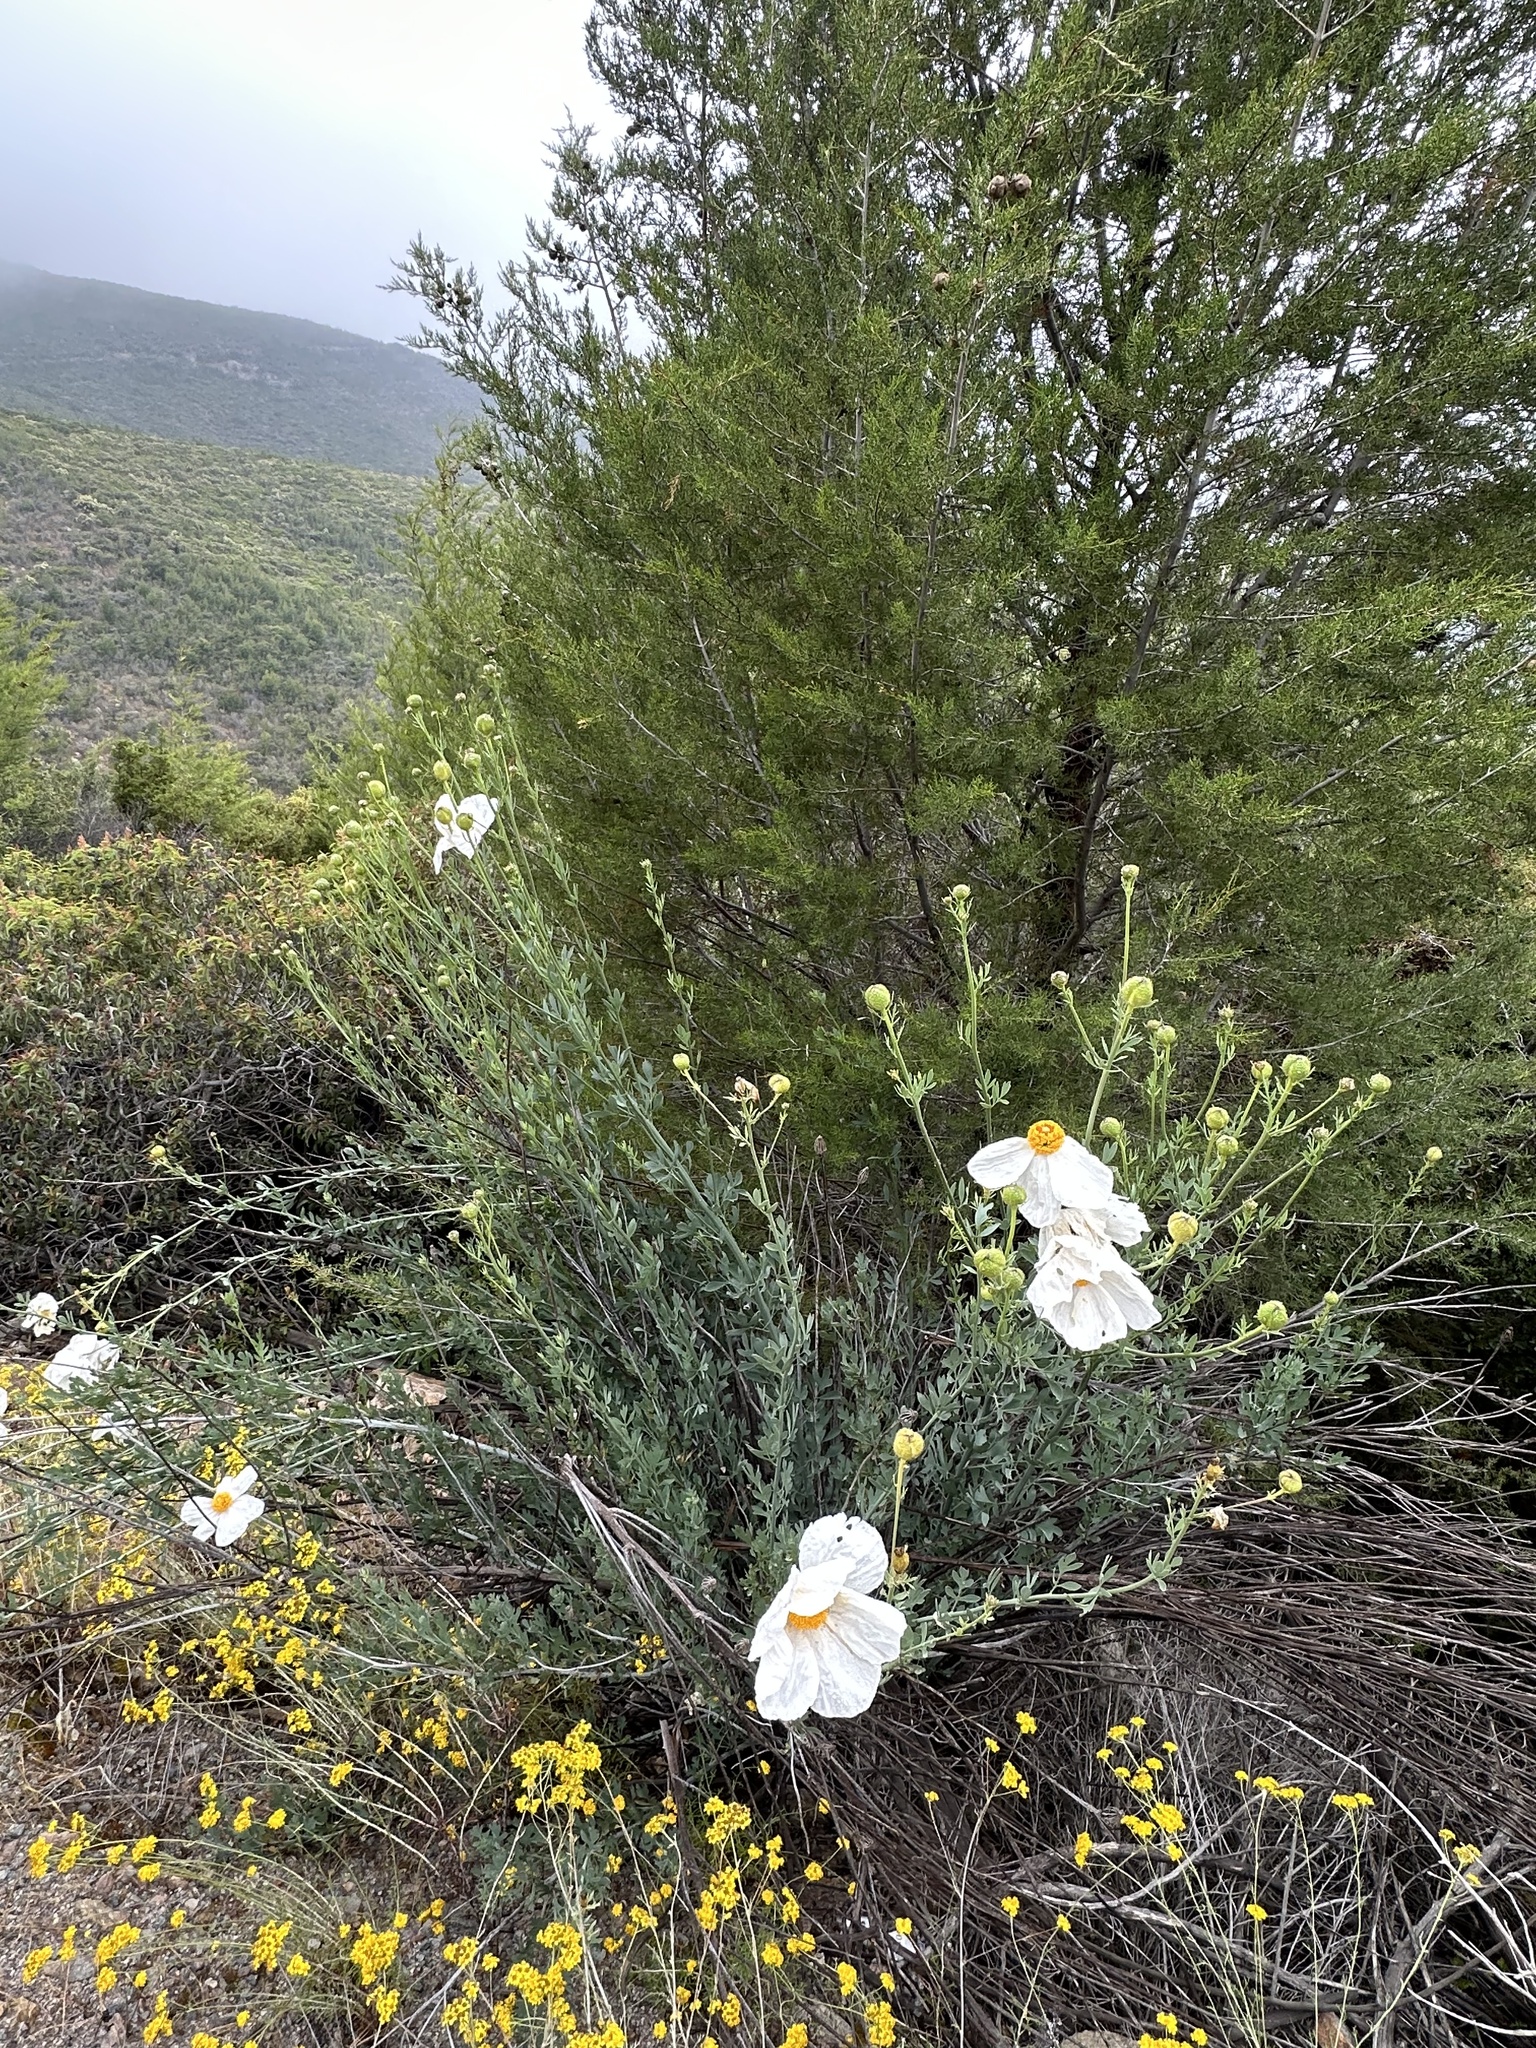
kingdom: Plantae
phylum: Tracheophyta
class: Magnoliopsida
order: Ranunculales
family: Papaveraceae
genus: Romneya
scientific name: Romneya trichocalyx
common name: Hairy matilija-poppy
